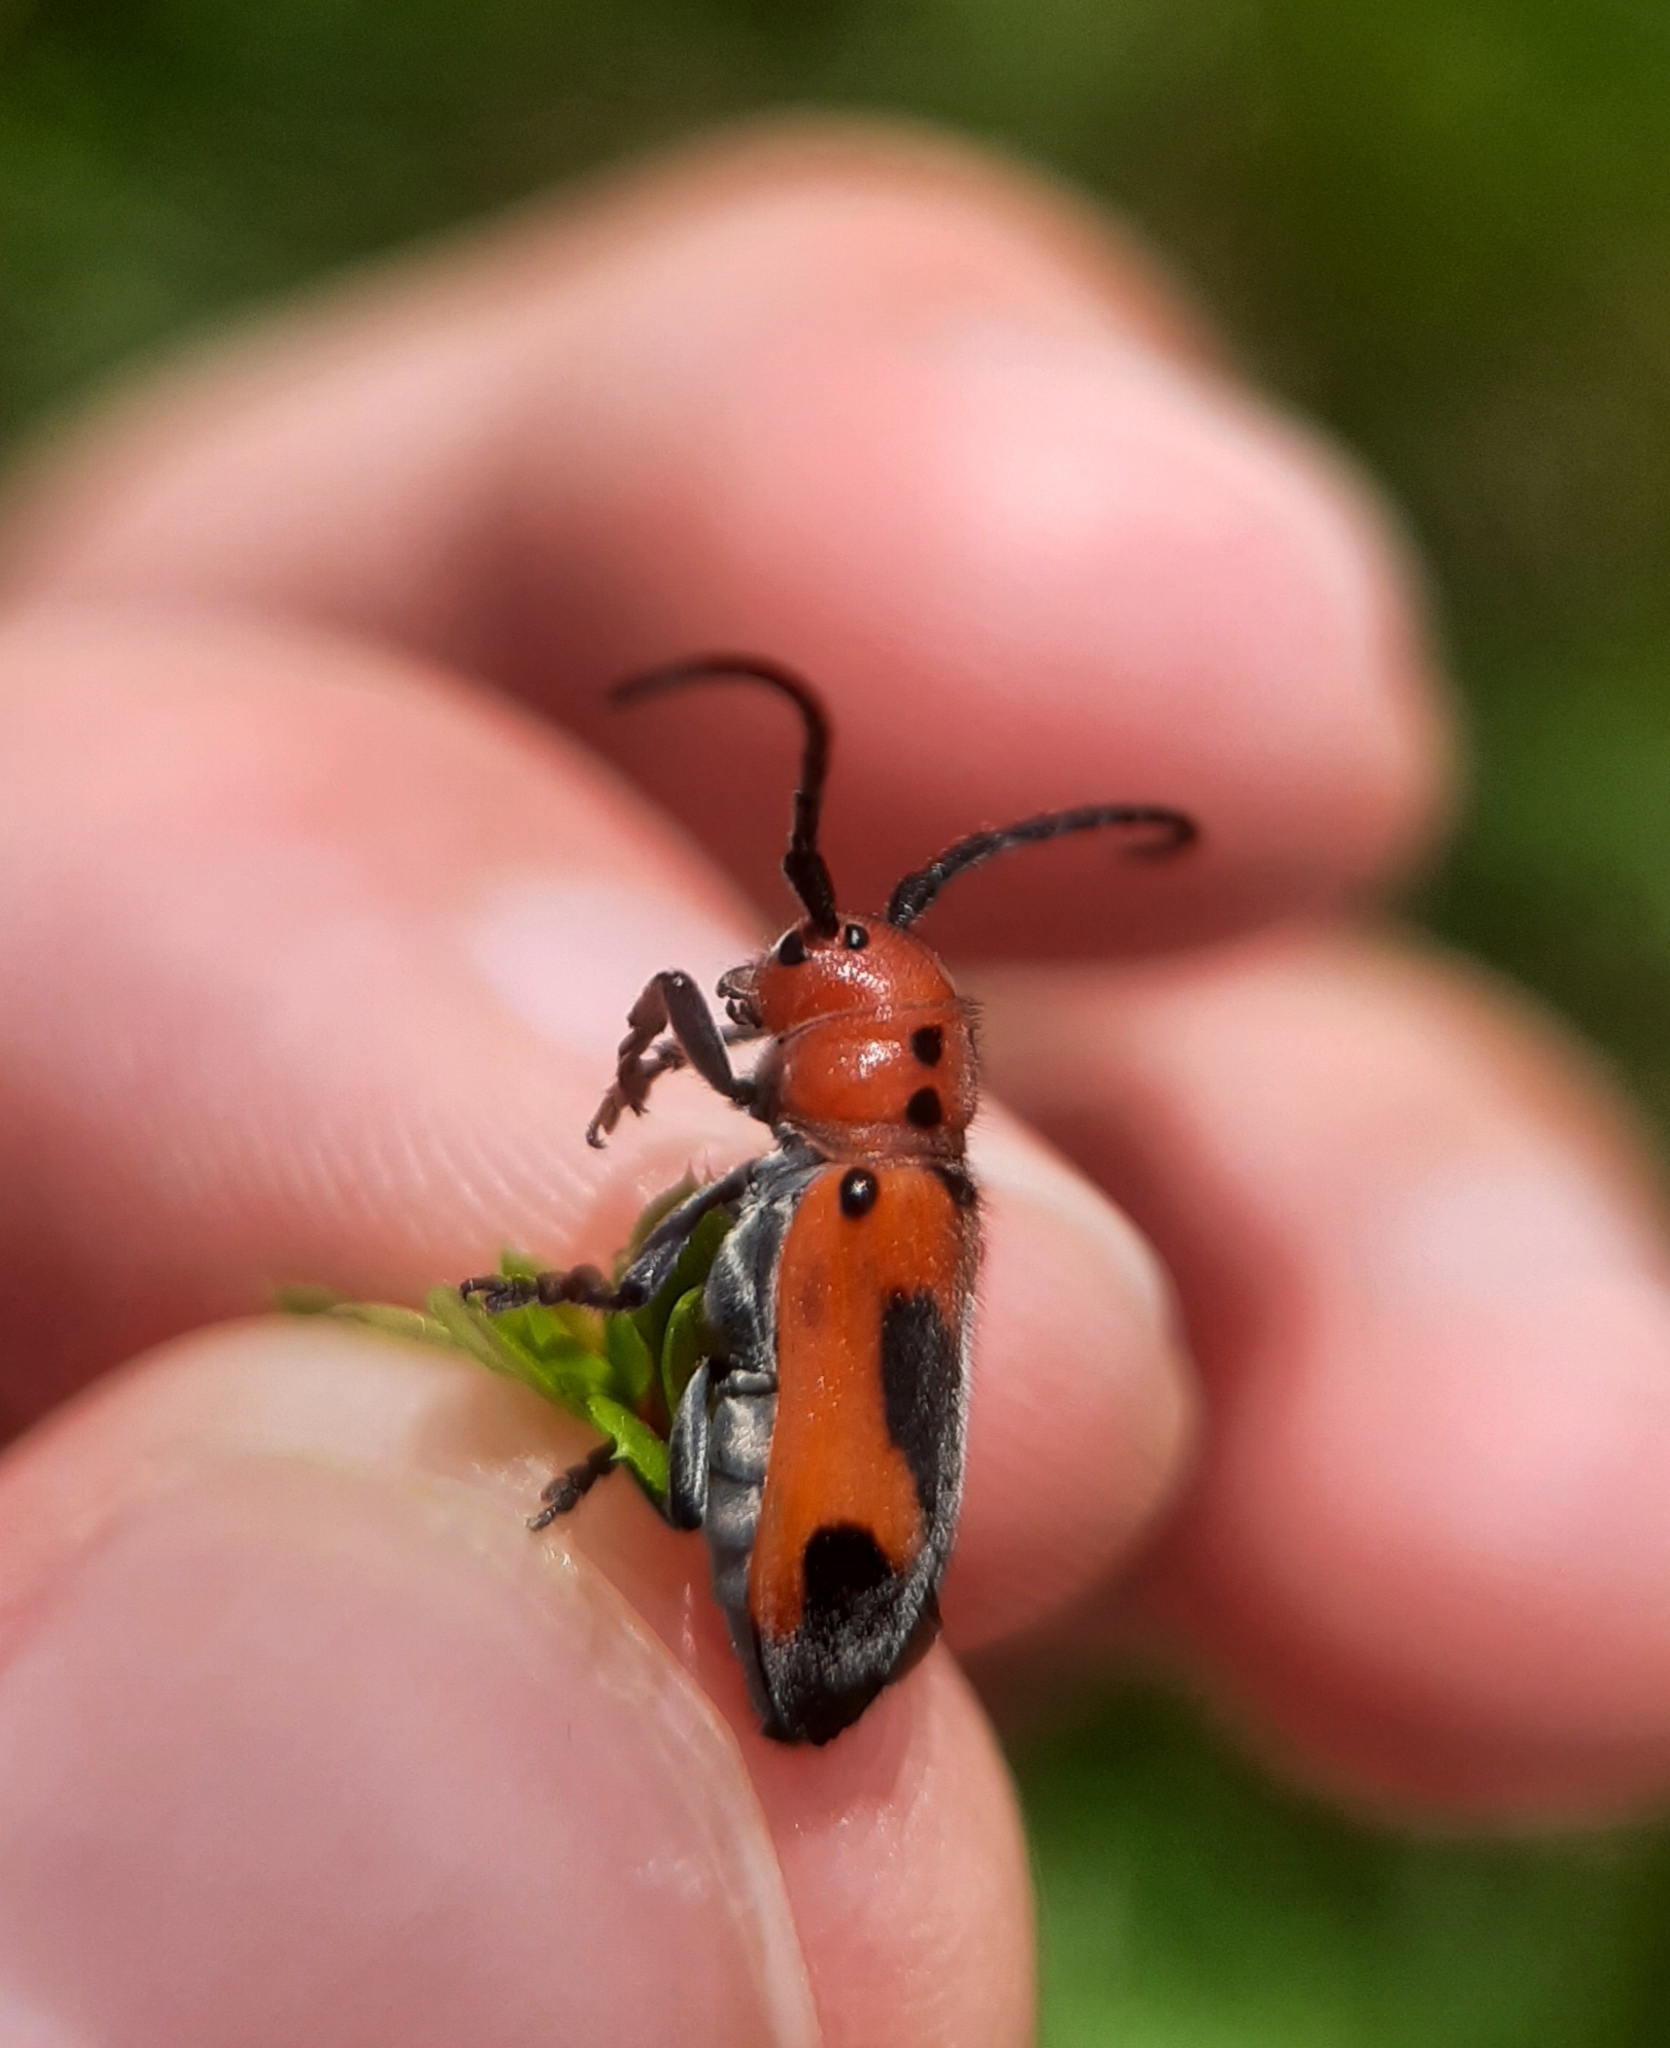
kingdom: Animalia
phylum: Arthropoda
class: Insecta
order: Coleoptera
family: Cerambycidae
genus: Tetraopes
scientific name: Tetraopes melanurus
